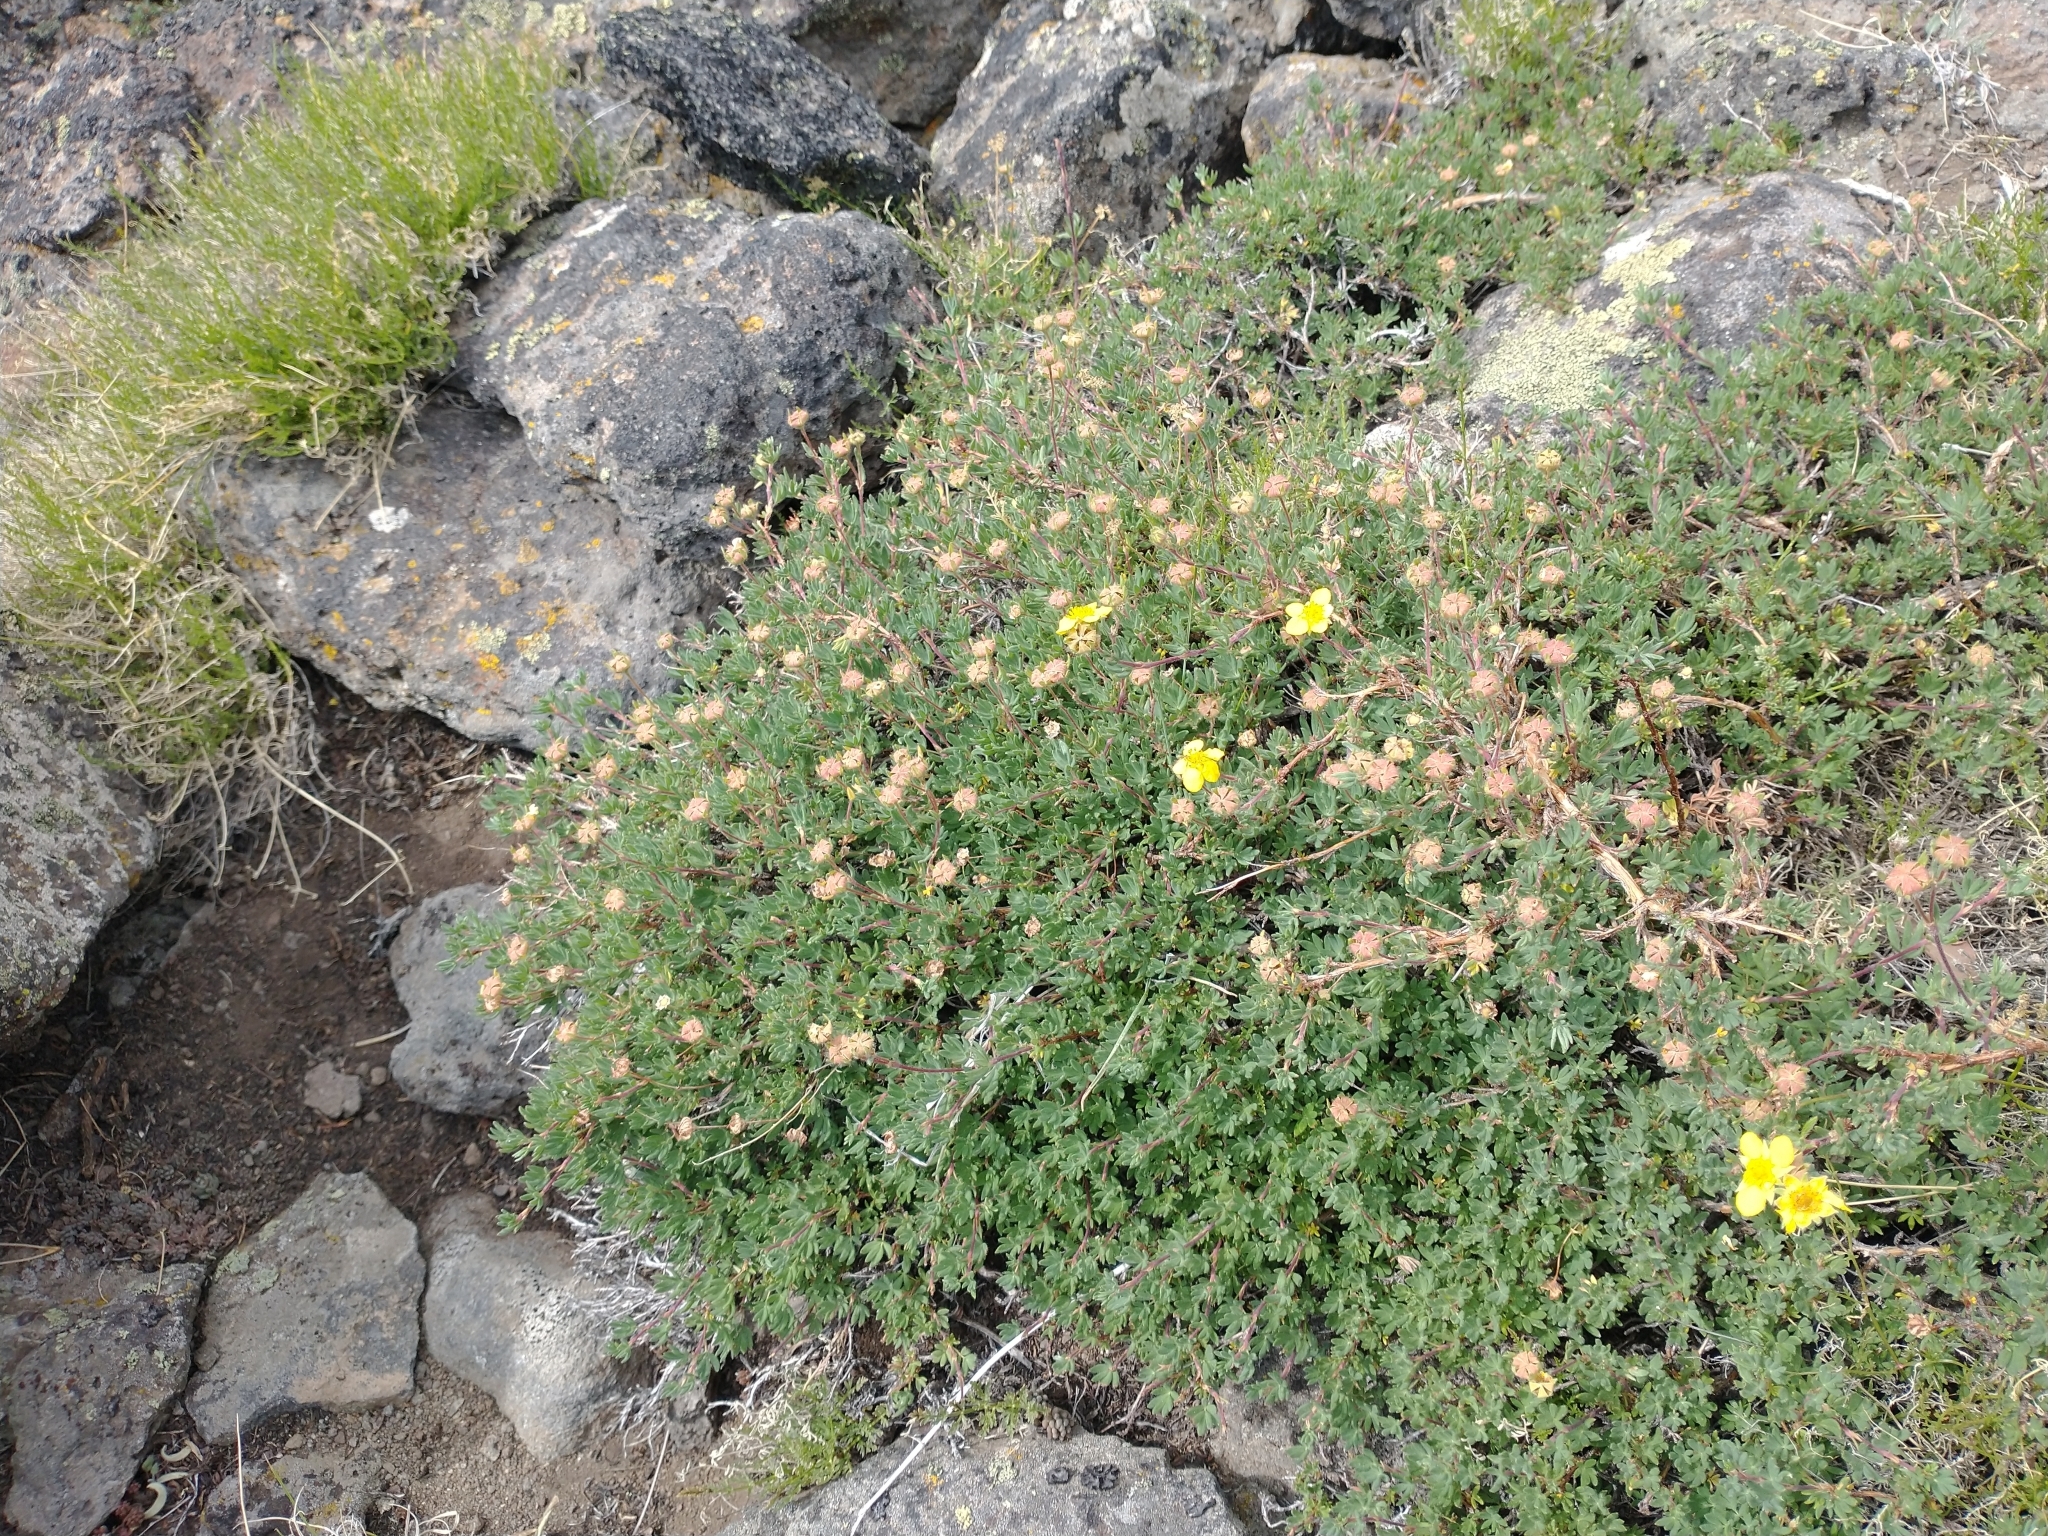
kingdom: Plantae
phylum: Tracheophyta
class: Magnoliopsida
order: Rosales
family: Rosaceae
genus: Dasiphora
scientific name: Dasiphora fruticosa
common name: Shrubby cinquefoil
